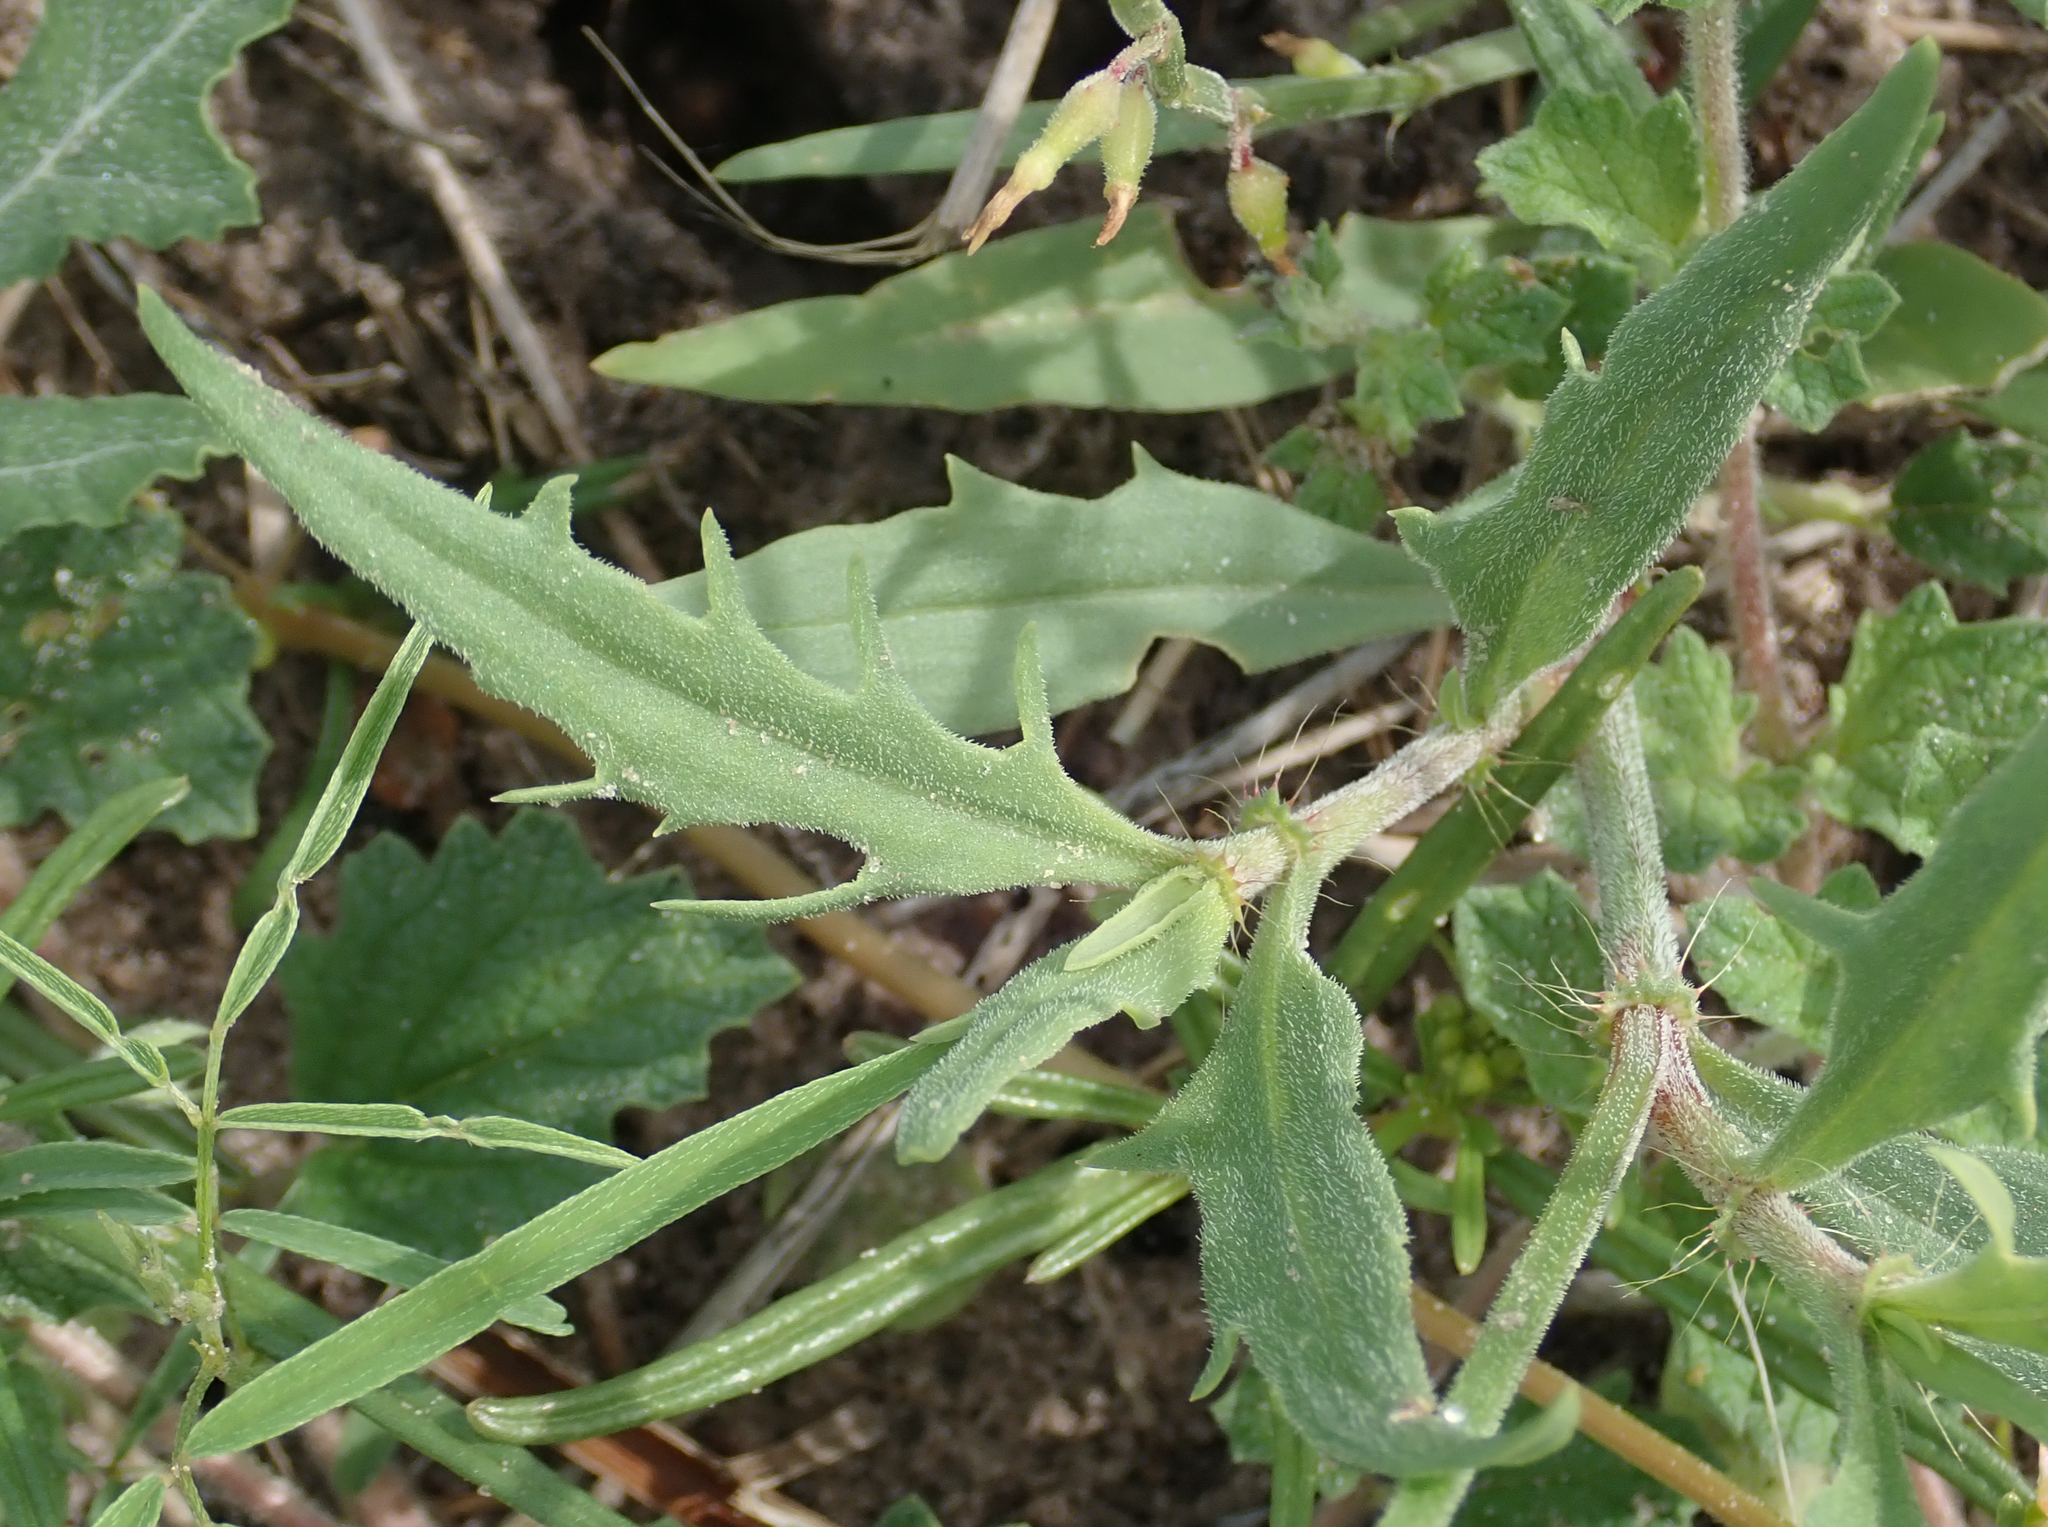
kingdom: Plantae
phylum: Tracheophyta
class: Magnoliopsida
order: Caryophyllales
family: Polygonaceae
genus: Oxygonum
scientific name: Oxygonum alatum
